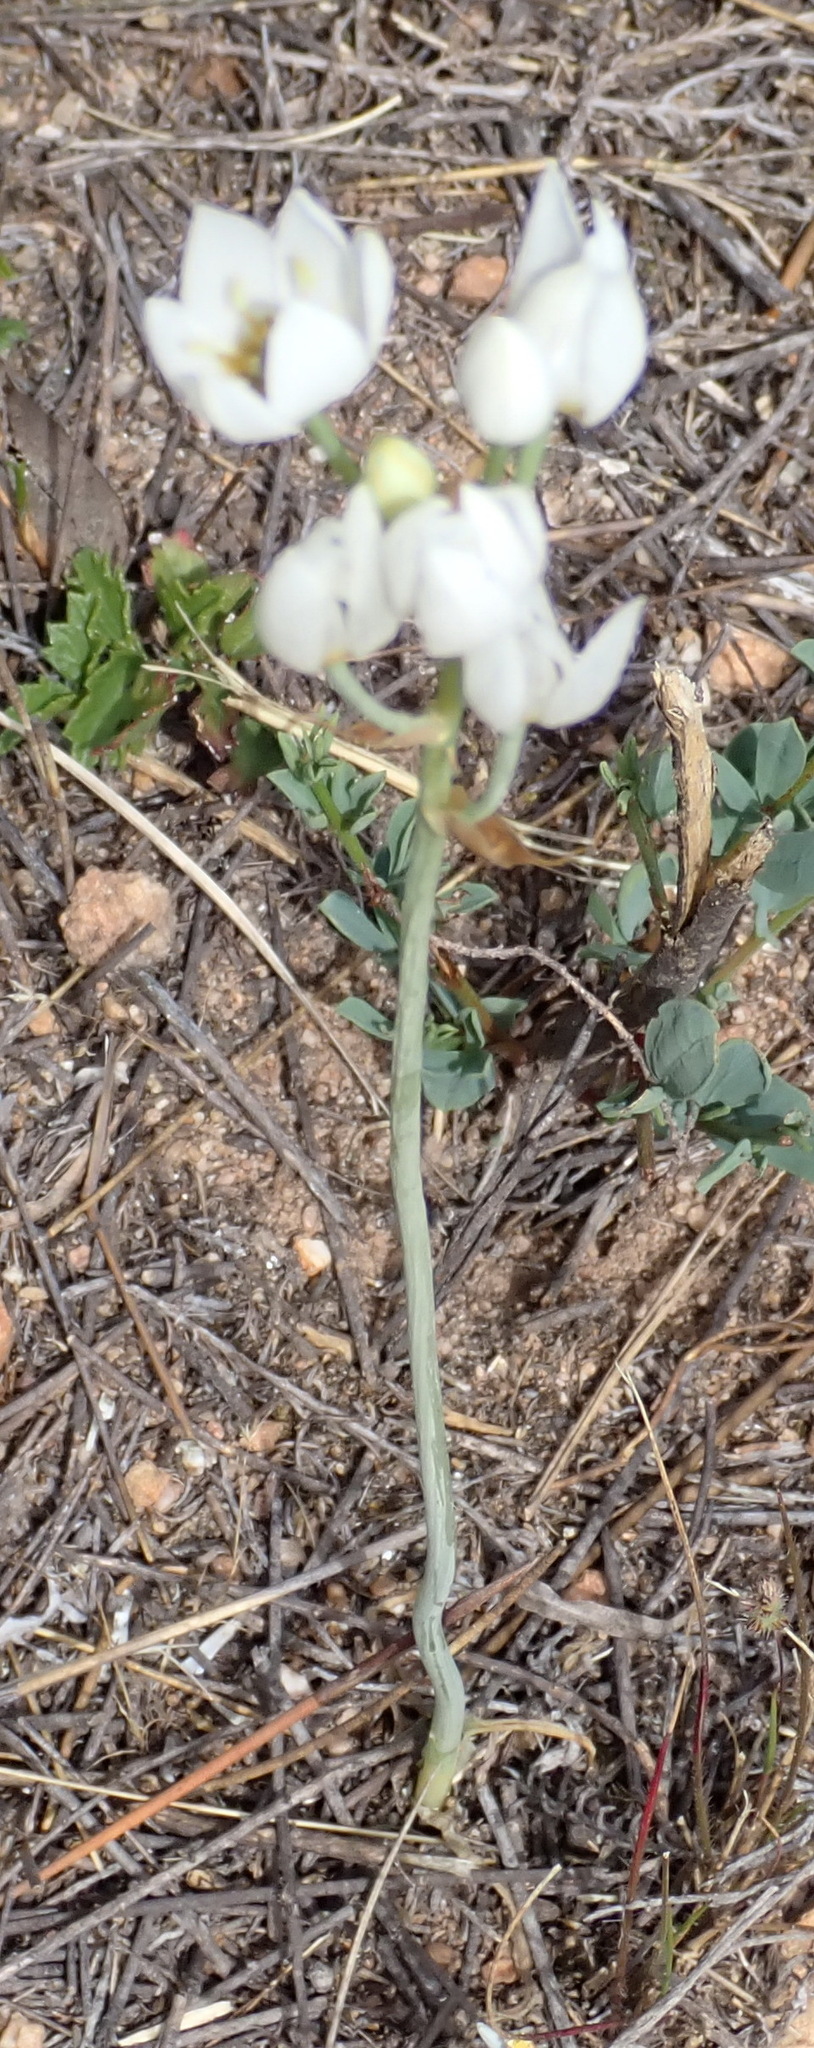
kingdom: Plantae
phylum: Tracheophyta
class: Liliopsida
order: Asparagales
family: Asparagaceae
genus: Ornithogalum
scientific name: Ornithogalum dubium
